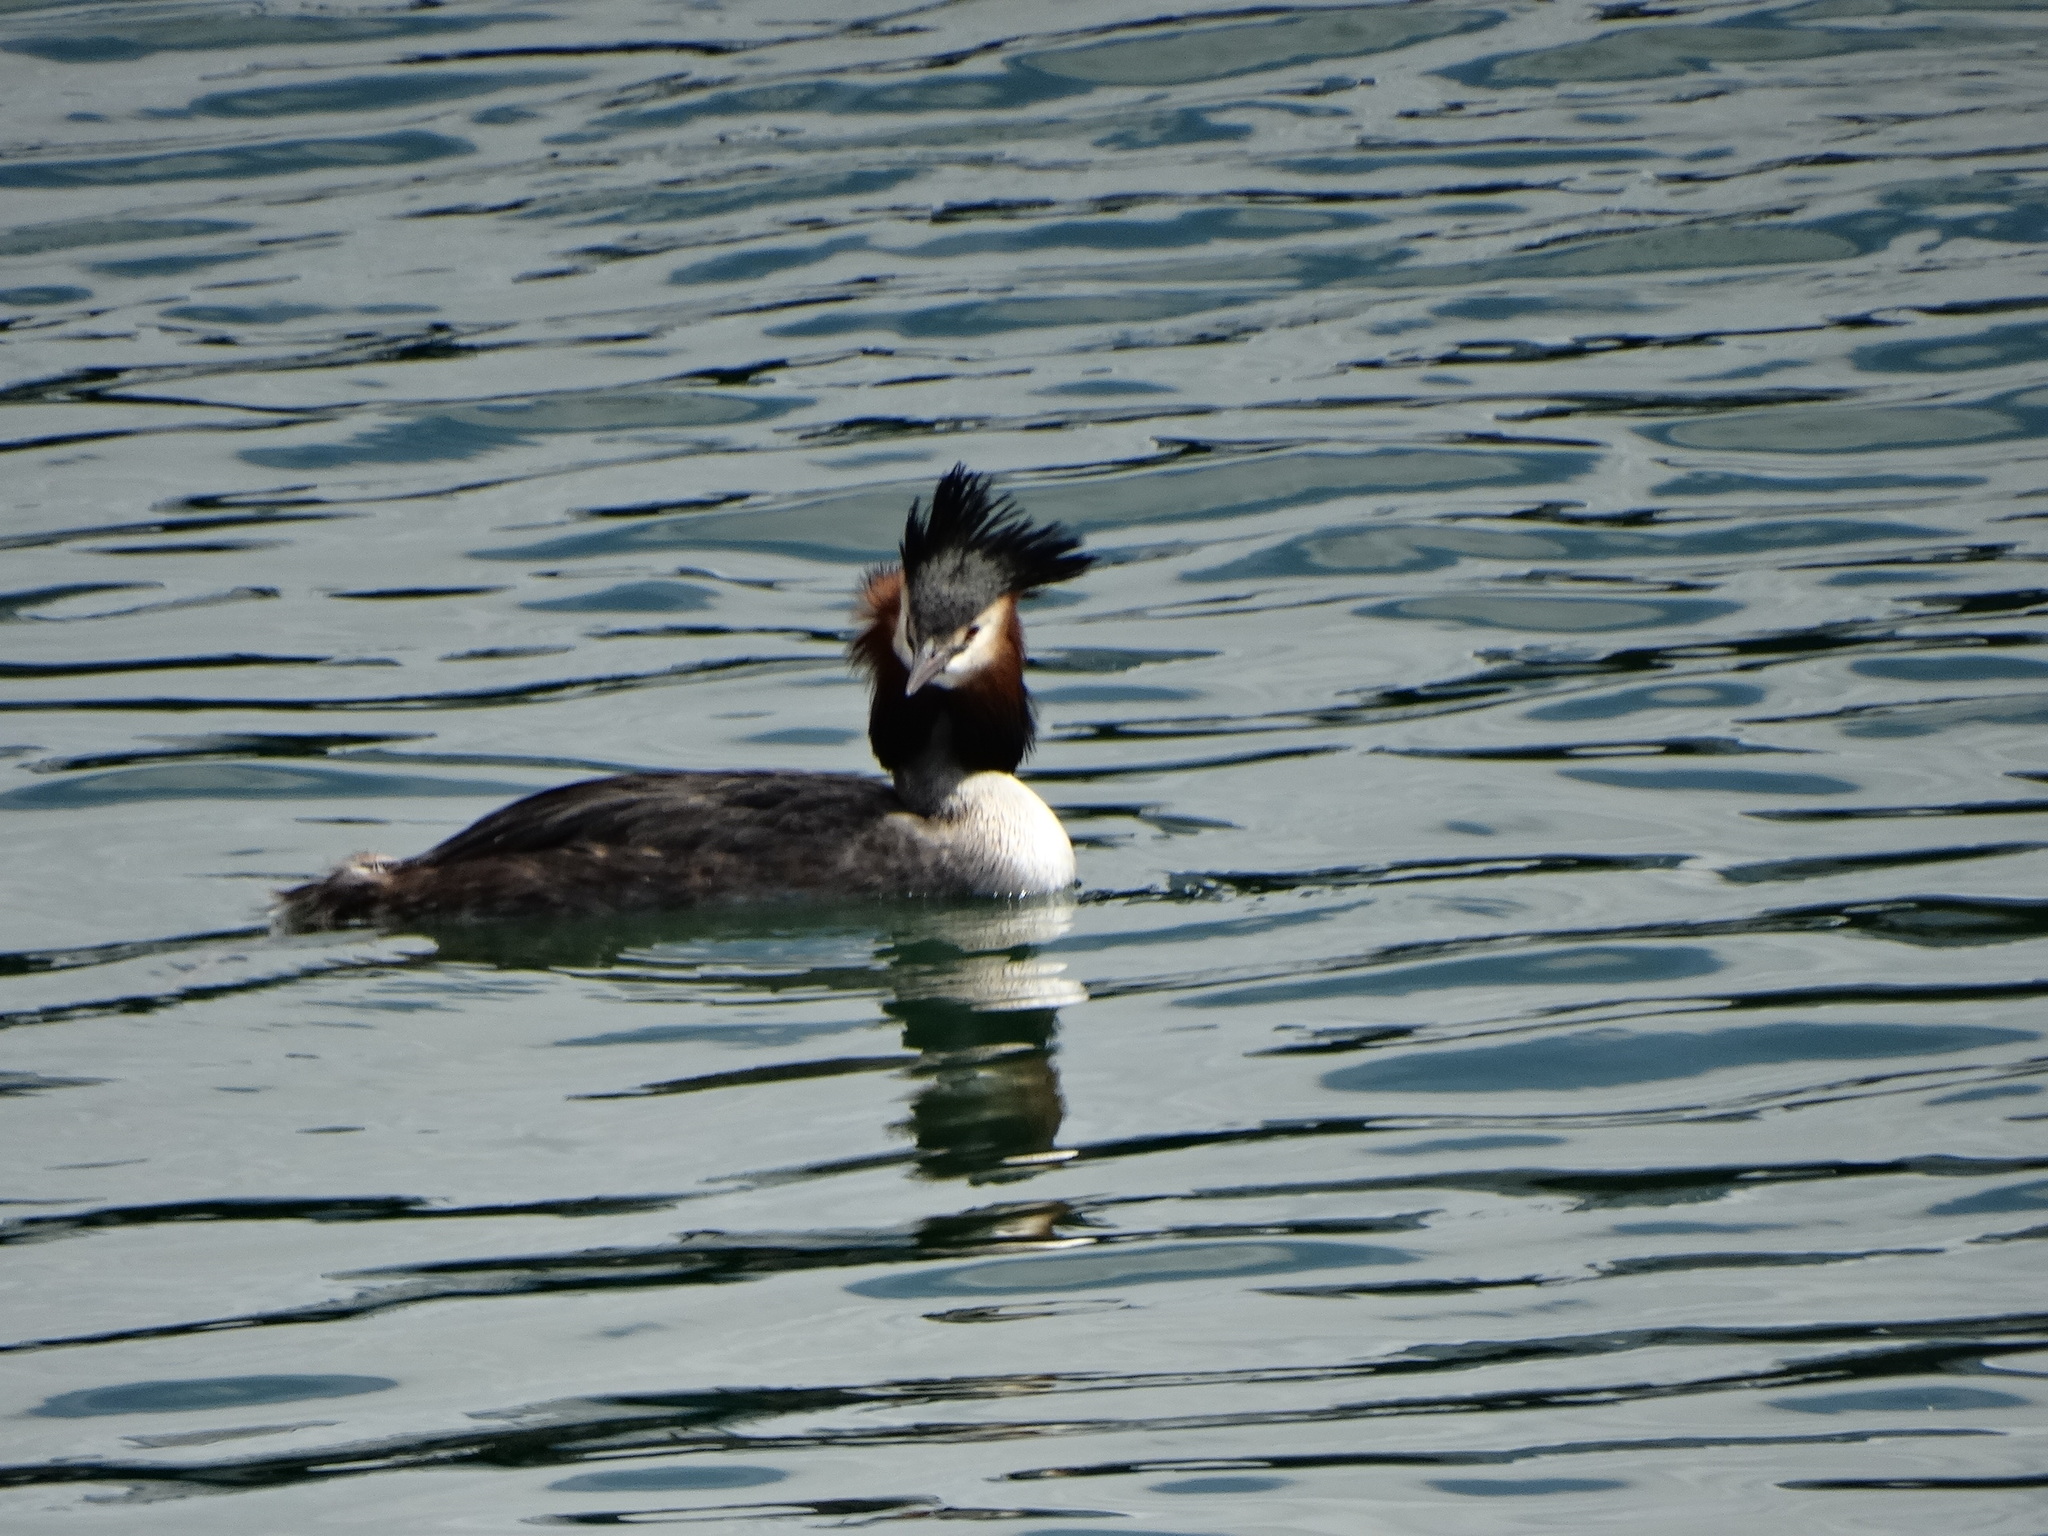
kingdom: Animalia
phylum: Chordata
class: Aves
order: Podicipediformes
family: Podicipedidae
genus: Podiceps
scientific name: Podiceps cristatus
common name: Great crested grebe
